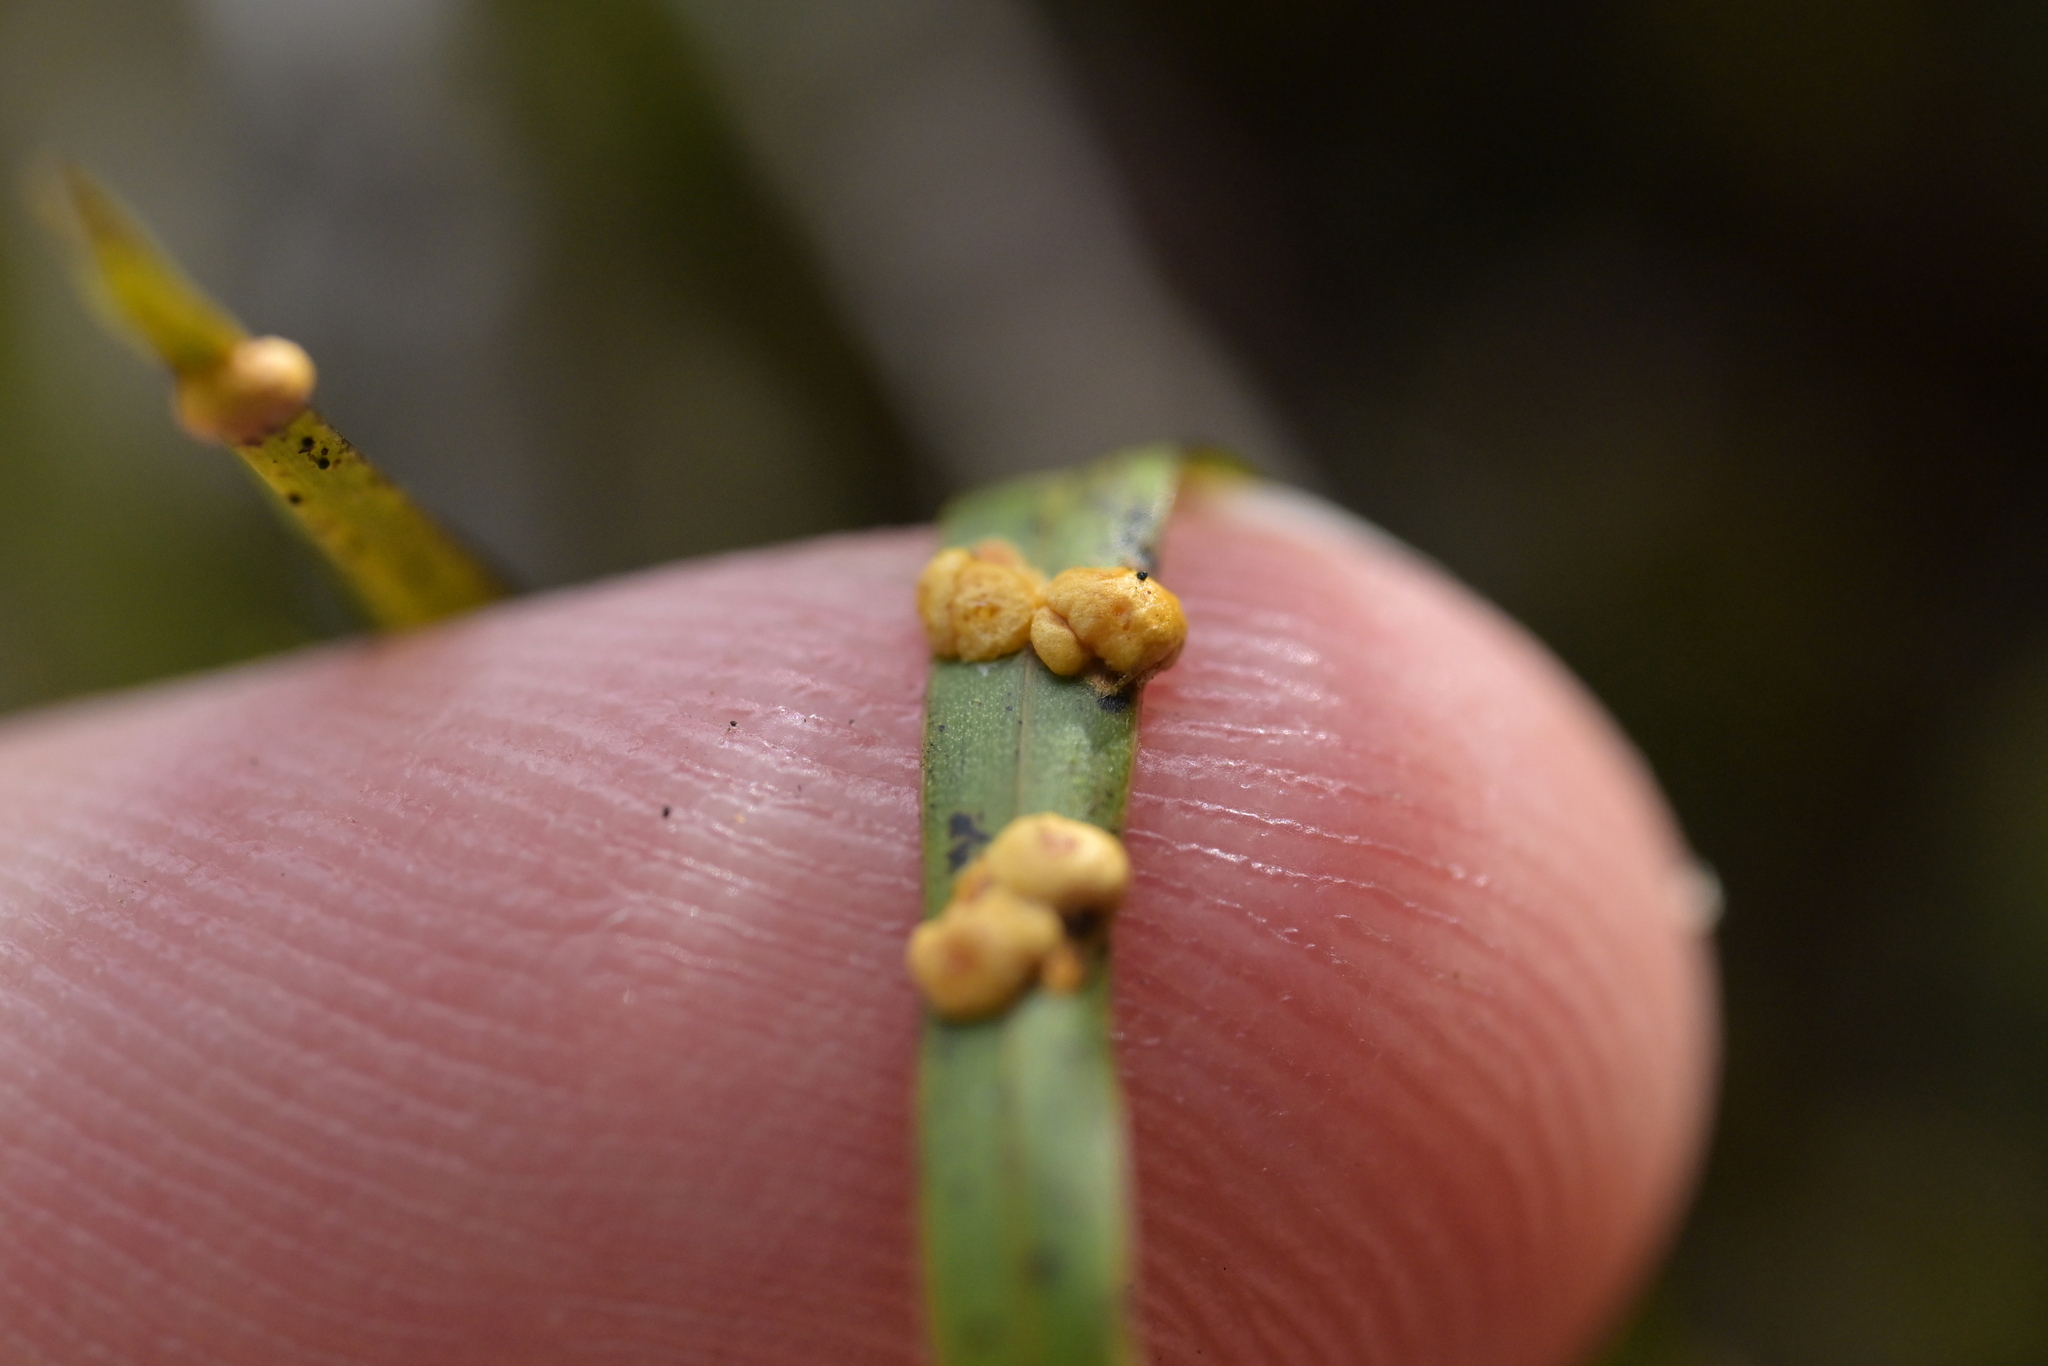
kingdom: Fungi
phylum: Ascomycota
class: Sordariomycetes
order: Hypocreales
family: Clavicipitaceae
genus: Hypocrella
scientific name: Hypocrella
